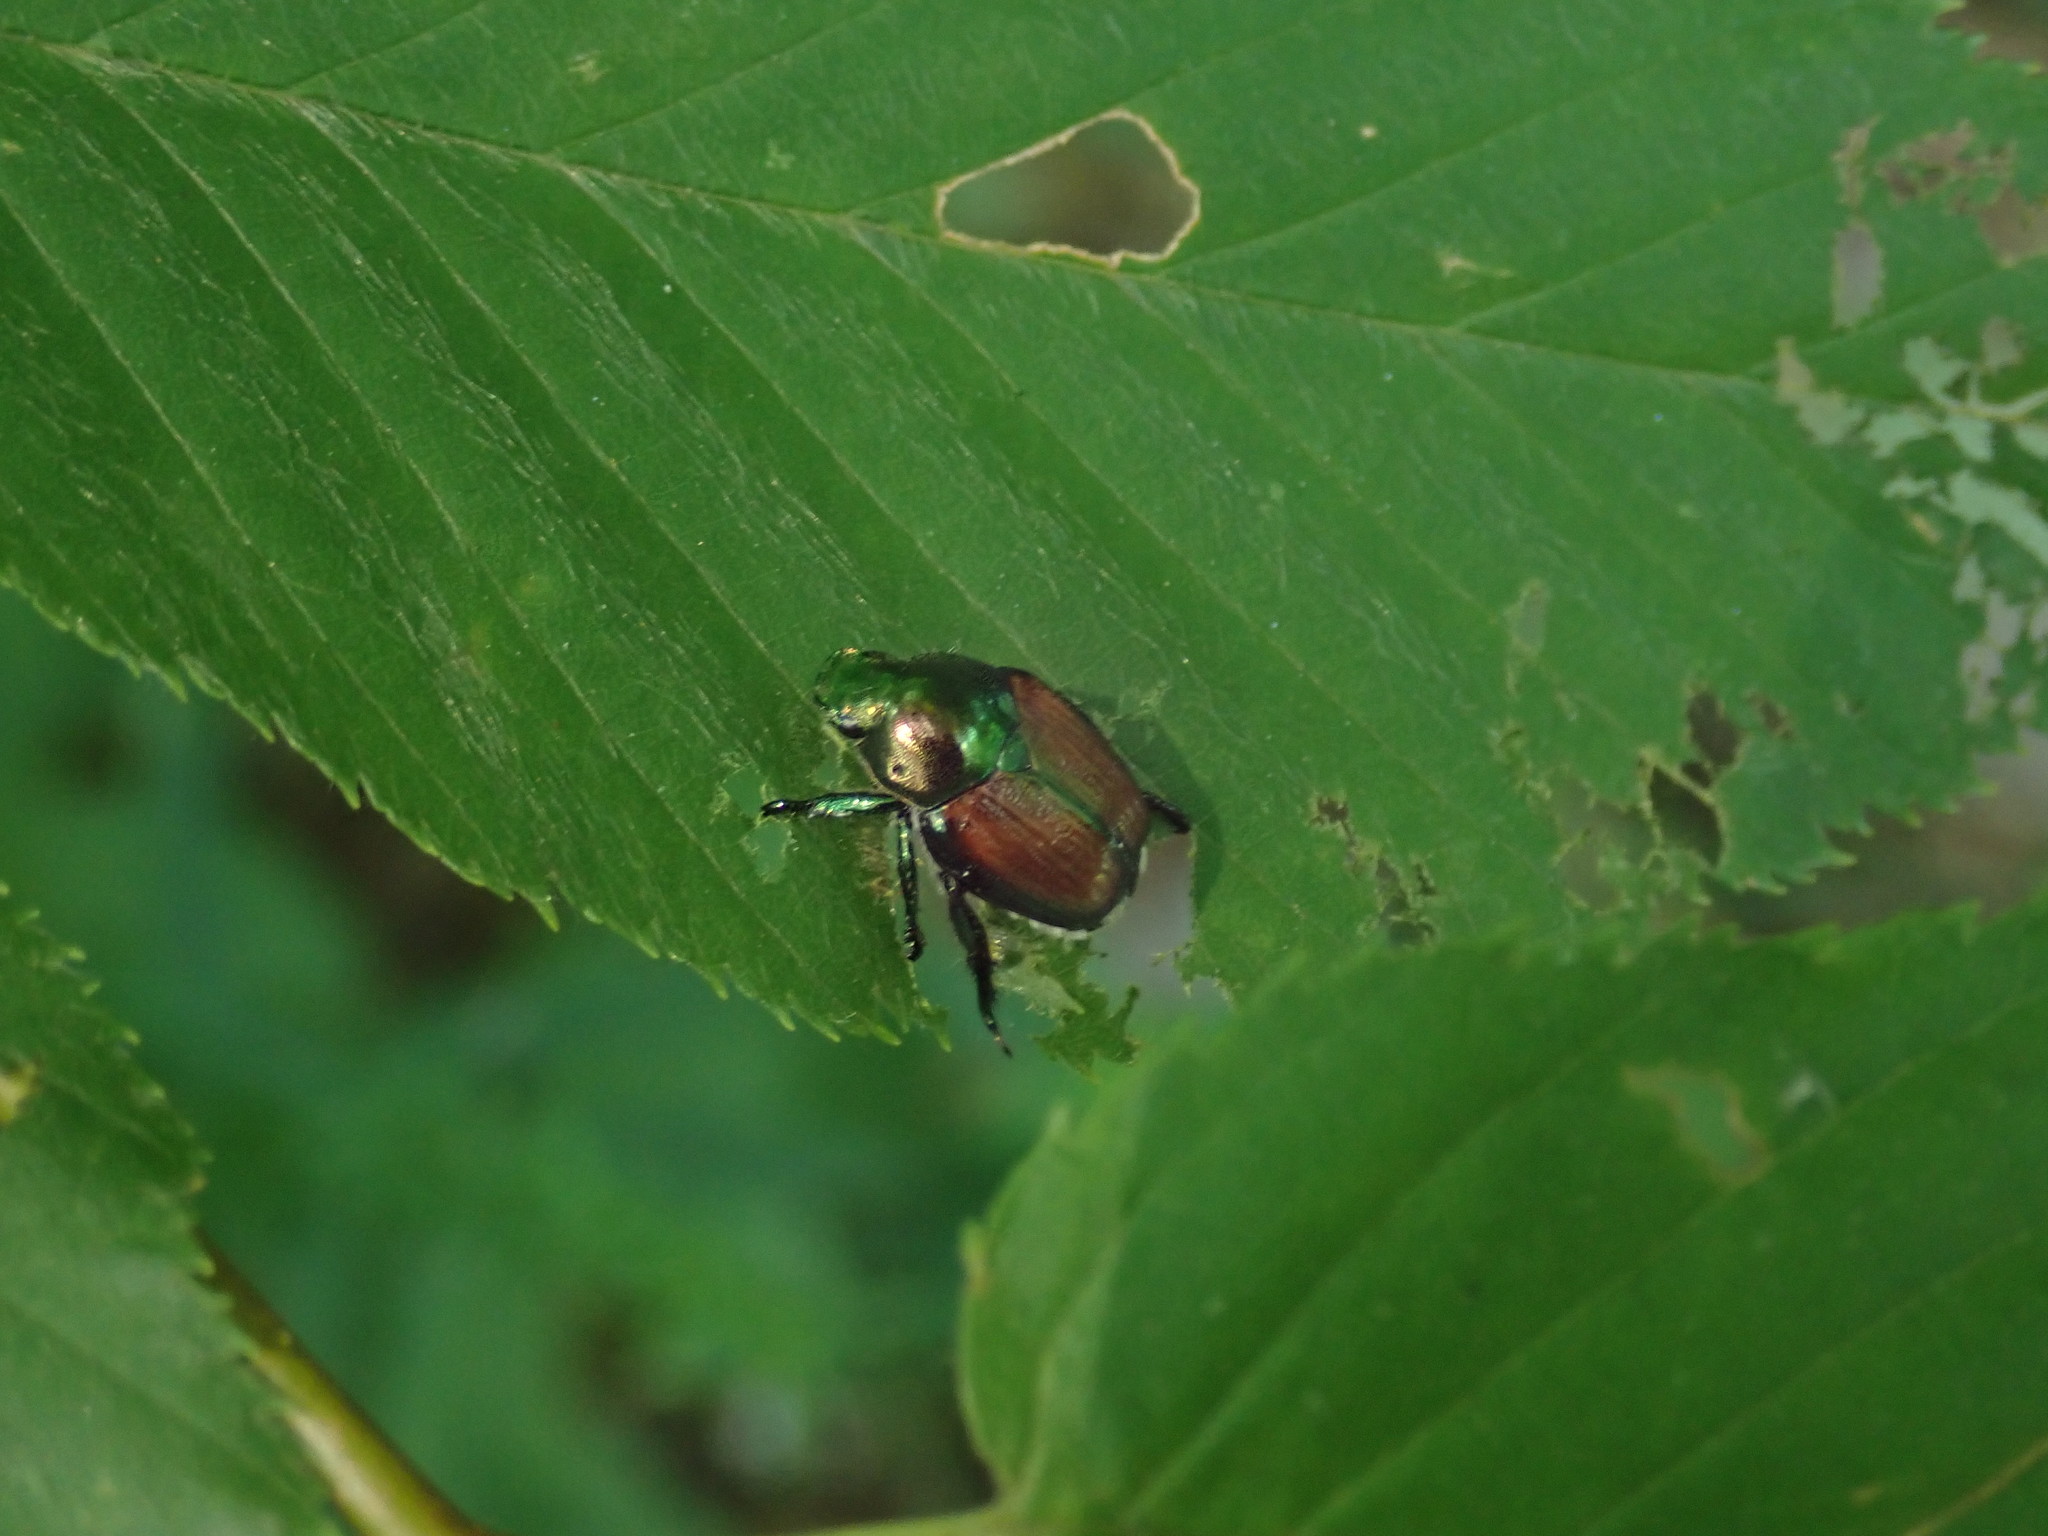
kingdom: Animalia
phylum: Arthropoda
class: Insecta
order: Coleoptera
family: Scarabaeidae
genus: Popillia
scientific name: Popillia japonica
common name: Japanese beetle
